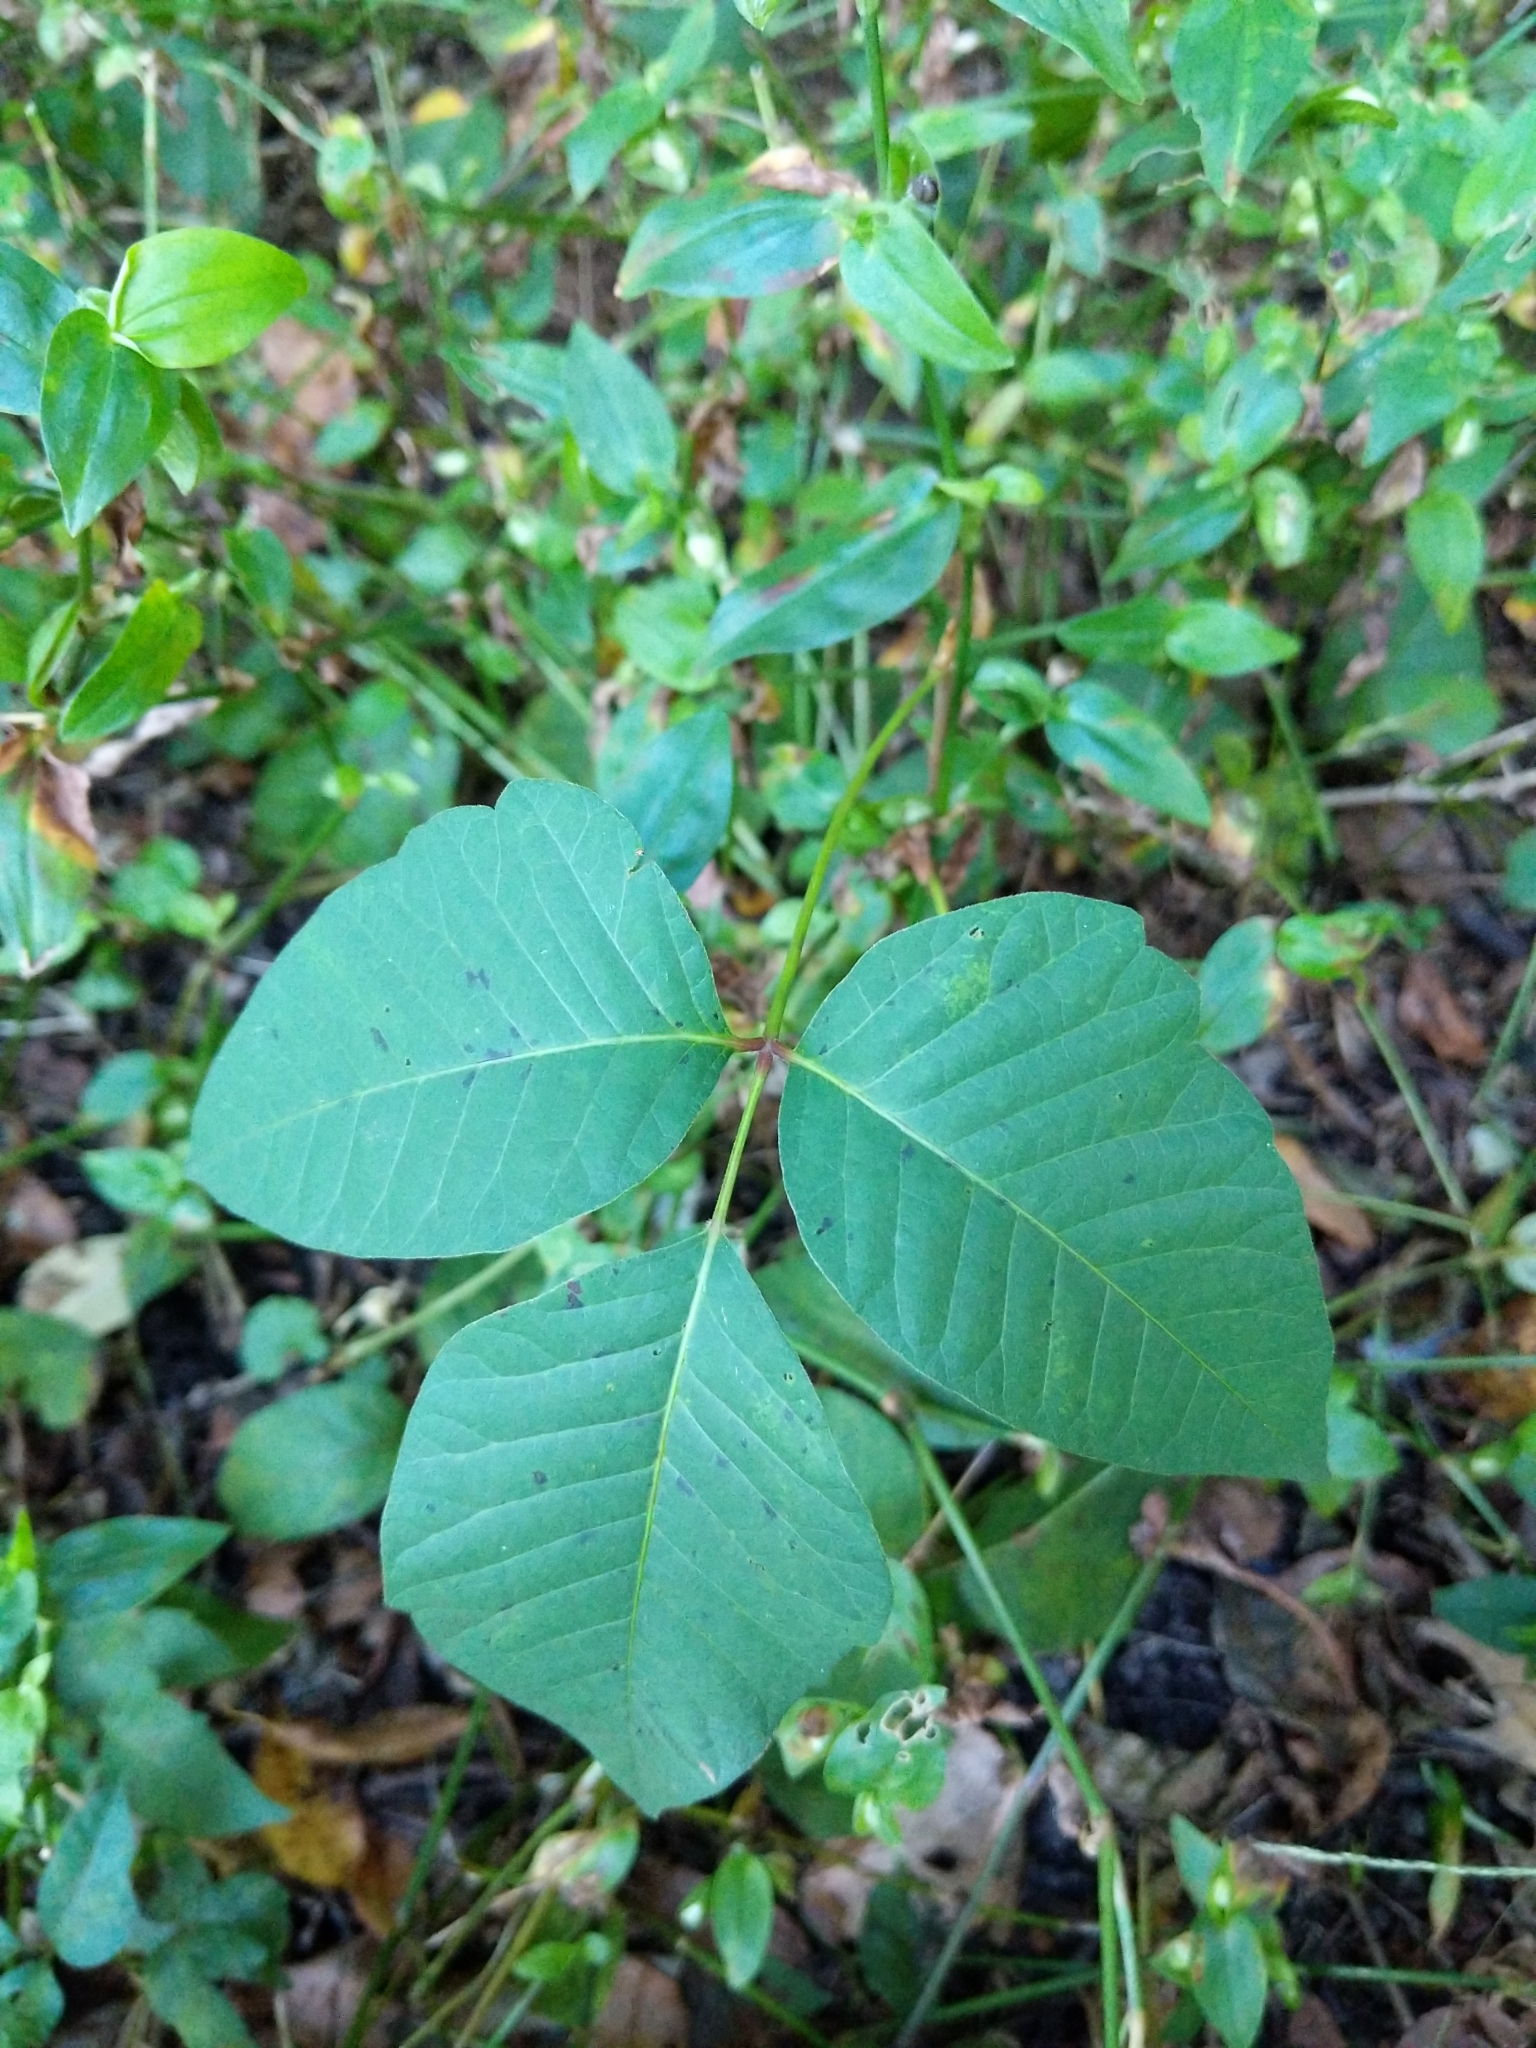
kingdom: Plantae
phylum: Tracheophyta
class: Magnoliopsida
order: Sapindales
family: Anacardiaceae
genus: Toxicodendron
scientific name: Toxicodendron radicans
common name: Poison ivy
